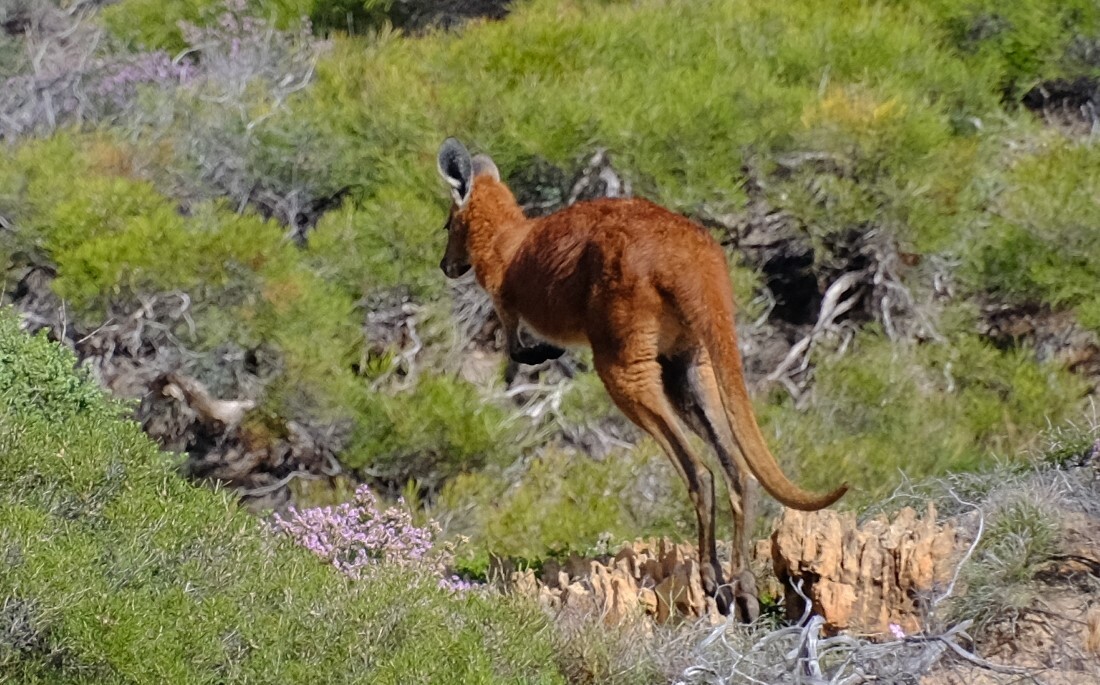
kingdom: Animalia
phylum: Chordata
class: Mammalia
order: Diprotodontia
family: Macropodidae
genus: Macropus
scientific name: Macropus robustus
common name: Eastern wallaroo
